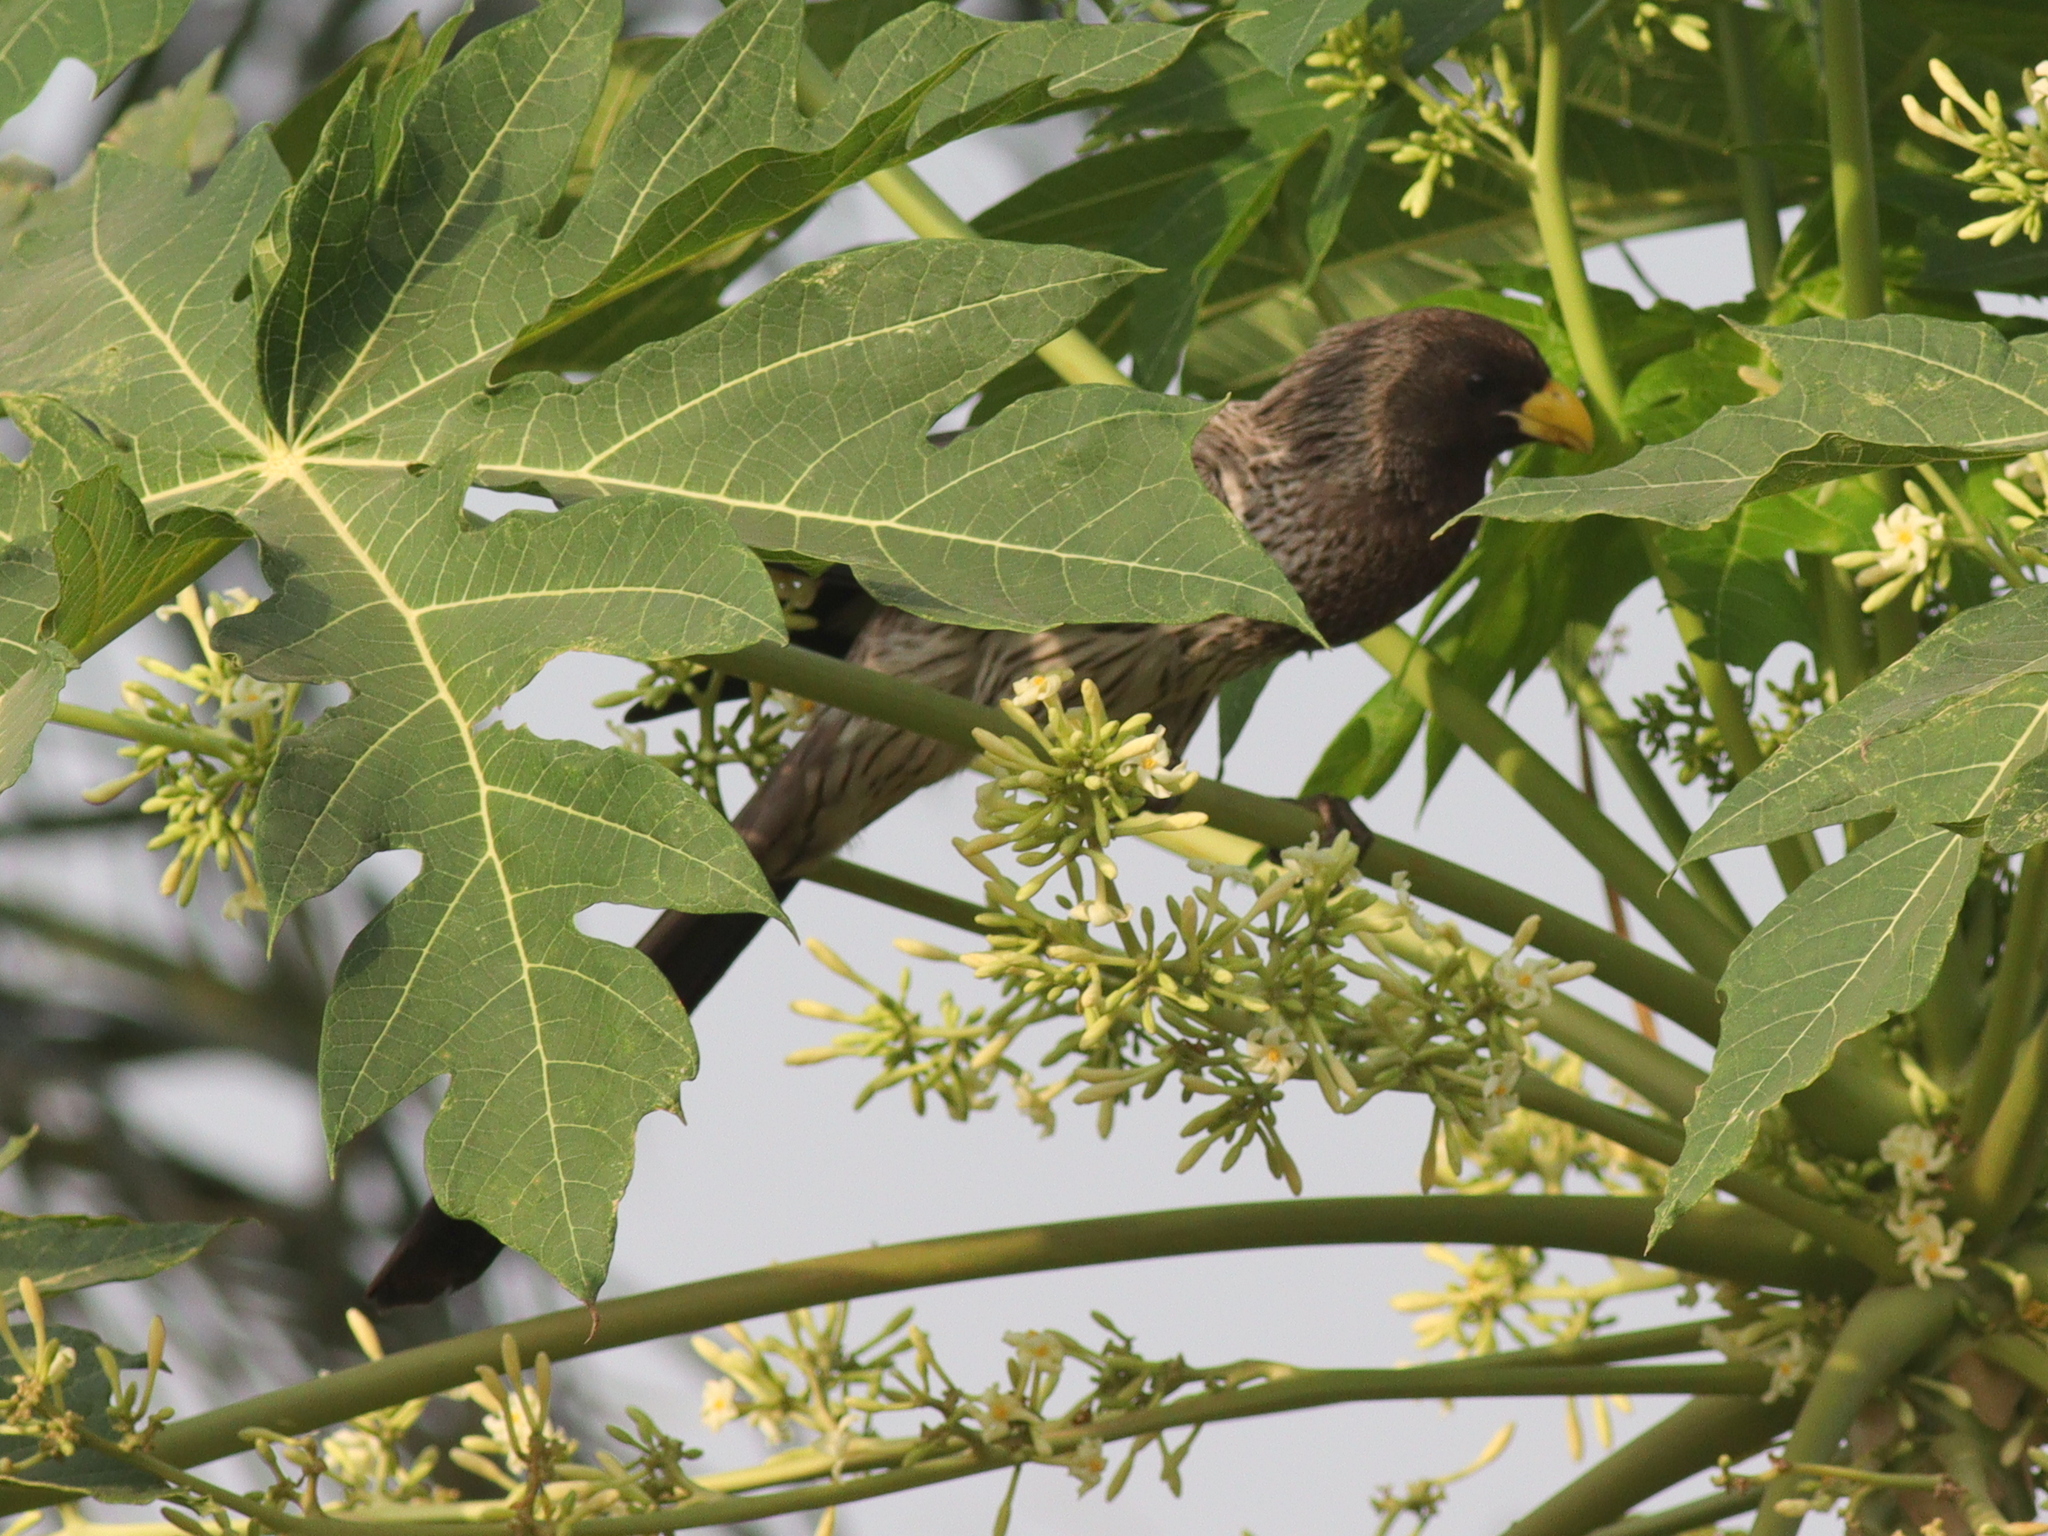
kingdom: Animalia
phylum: Chordata
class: Aves
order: Musophagiformes
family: Musophagidae
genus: Crinifer
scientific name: Crinifer piscator
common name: Western plantain-eater
